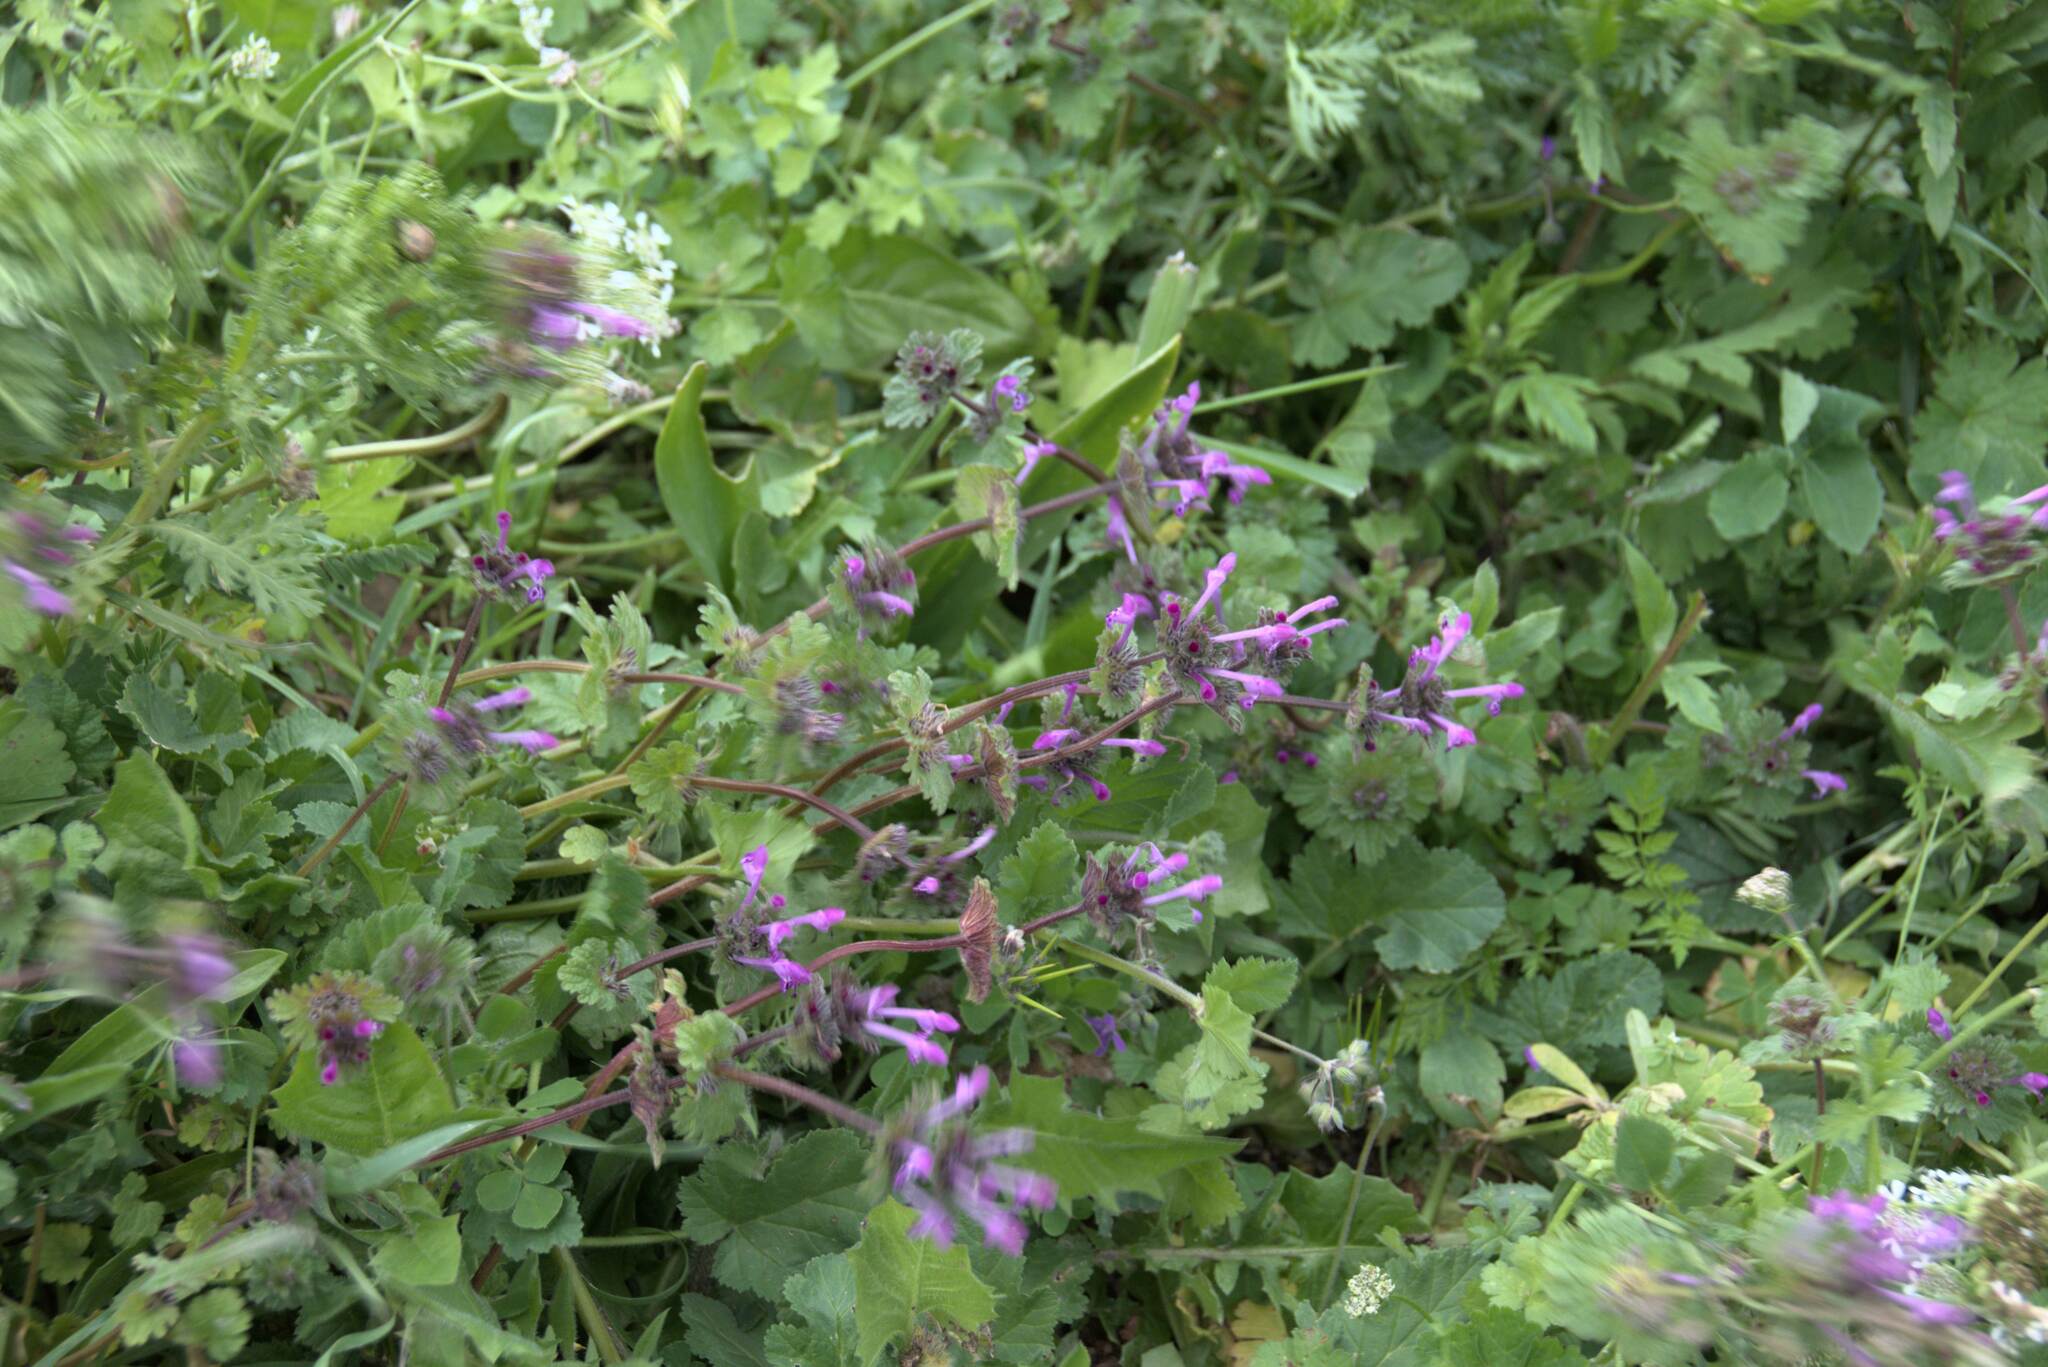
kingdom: Plantae
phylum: Tracheophyta
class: Magnoliopsida
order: Lamiales
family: Lamiaceae
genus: Lamium
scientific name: Lamium amplexicaule
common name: Henbit dead-nettle
